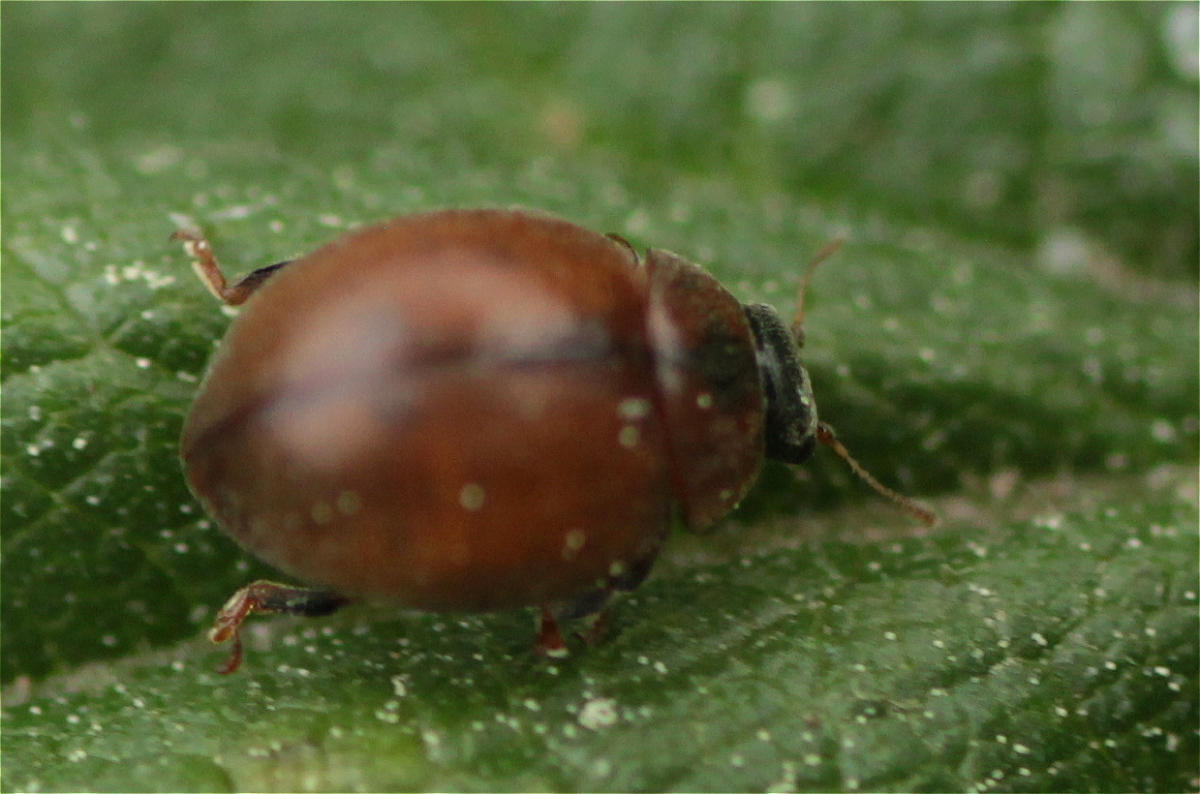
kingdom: Animalia
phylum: Arthropoda
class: Insecta
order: Coleoptera
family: Coccinellidae
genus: Cynegetis
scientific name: Cynegetis impunctata
